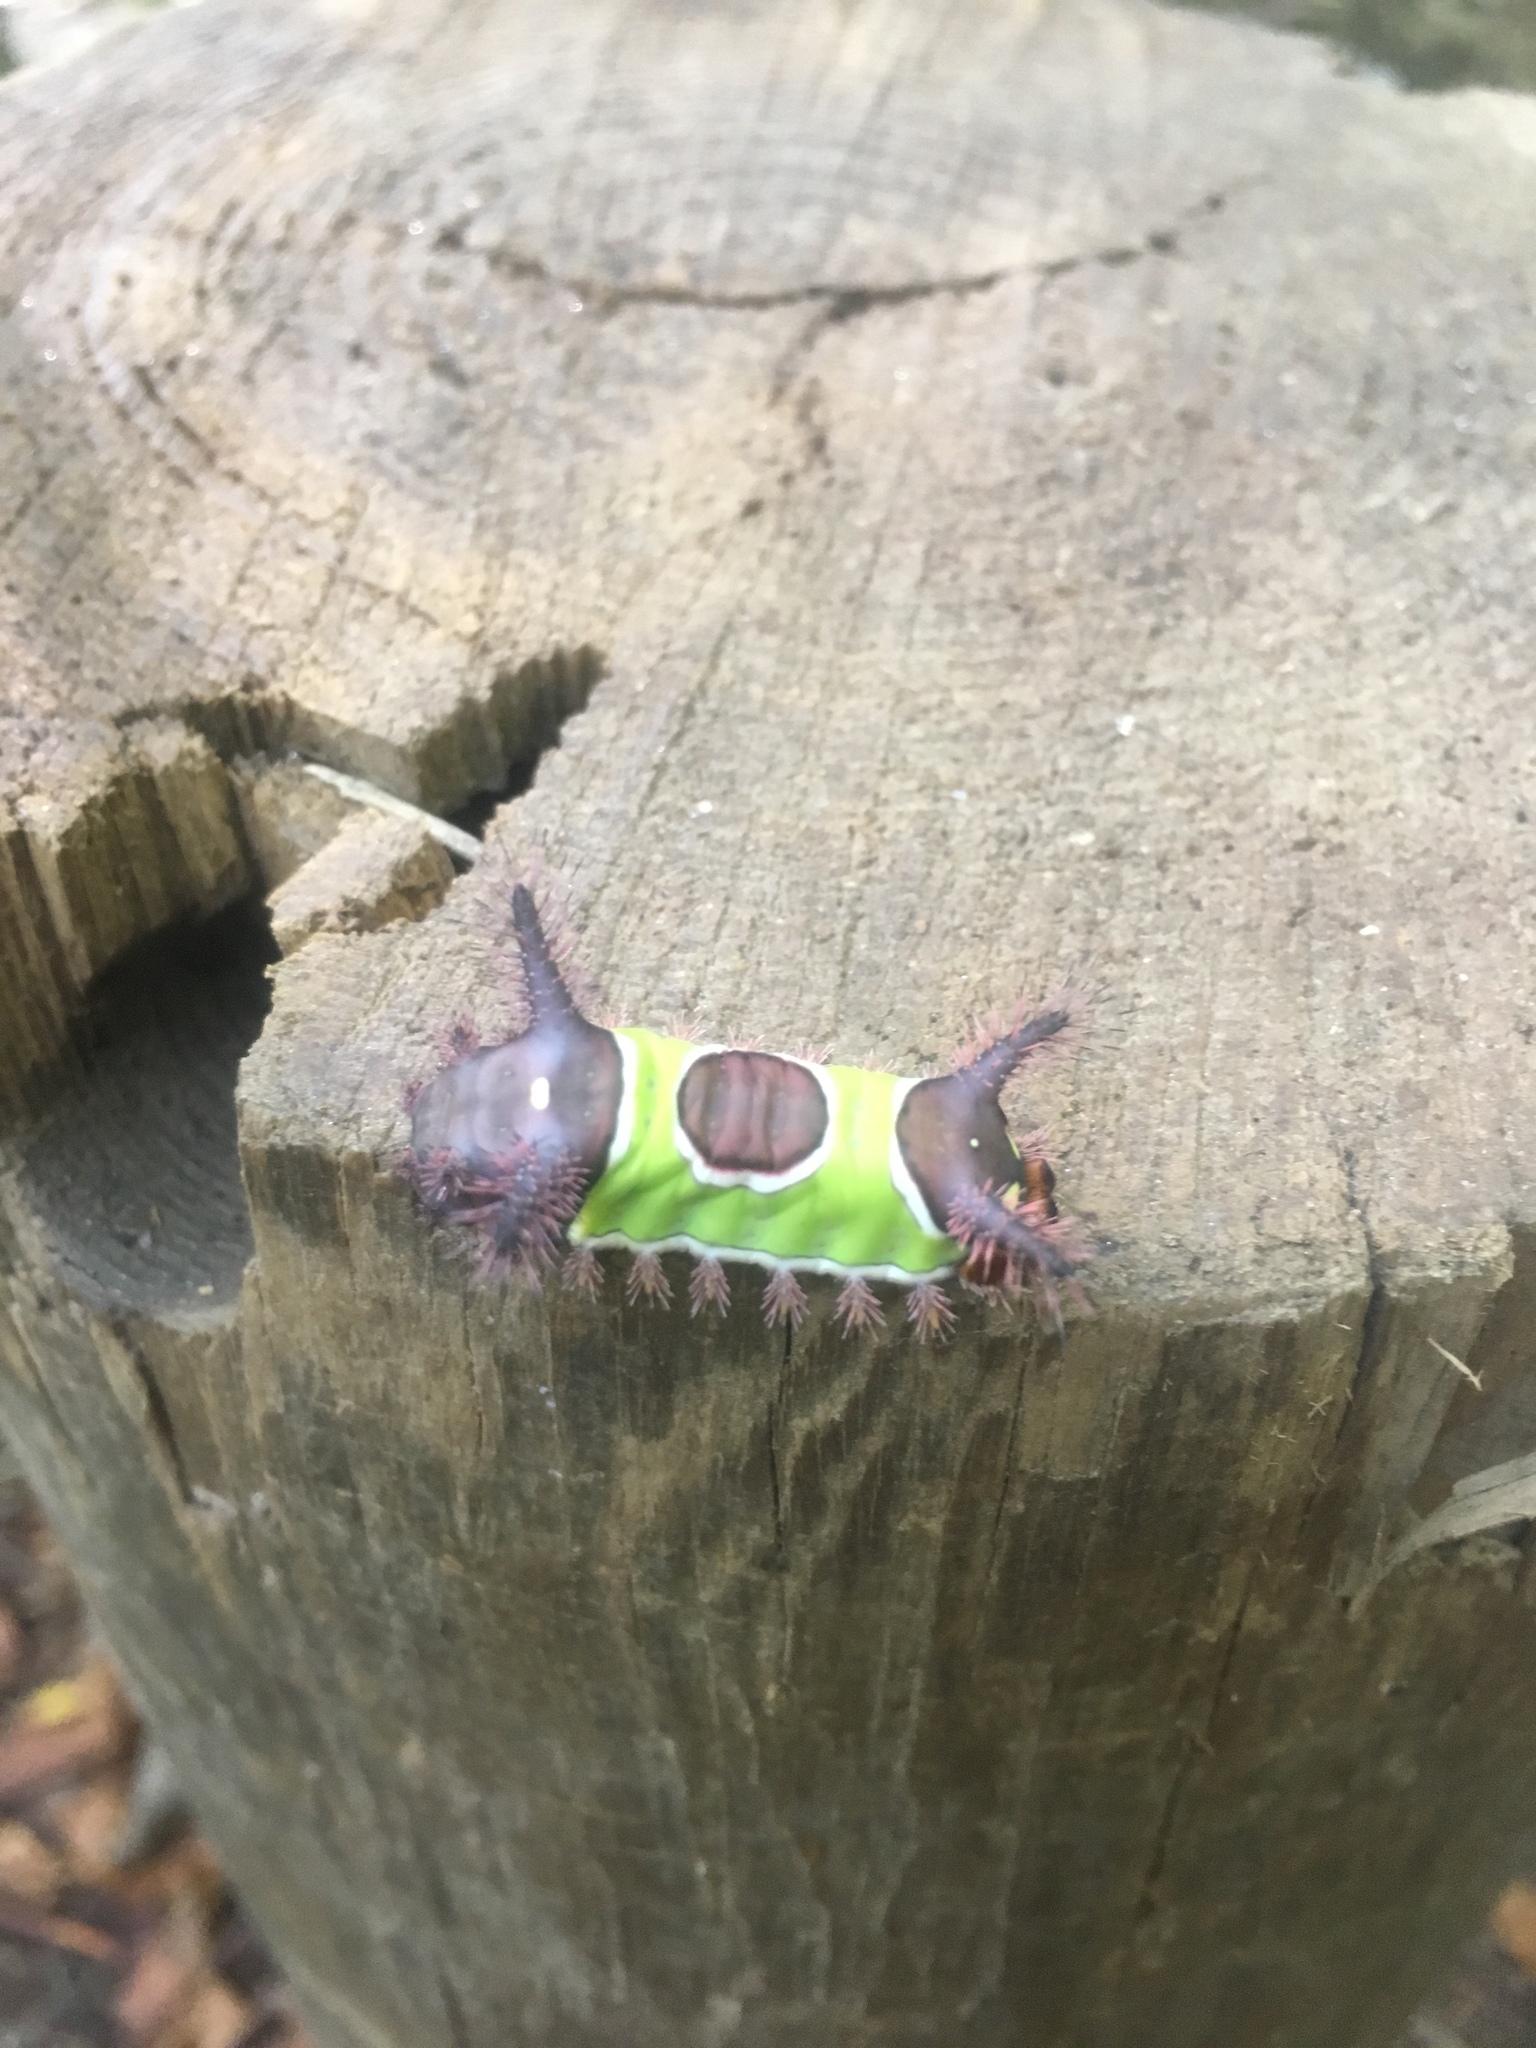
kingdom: Animalia
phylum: Arthropoda
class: Insecta
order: Lepidoptera
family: Limacodidae
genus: Acharia
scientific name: Acharia stimulea
